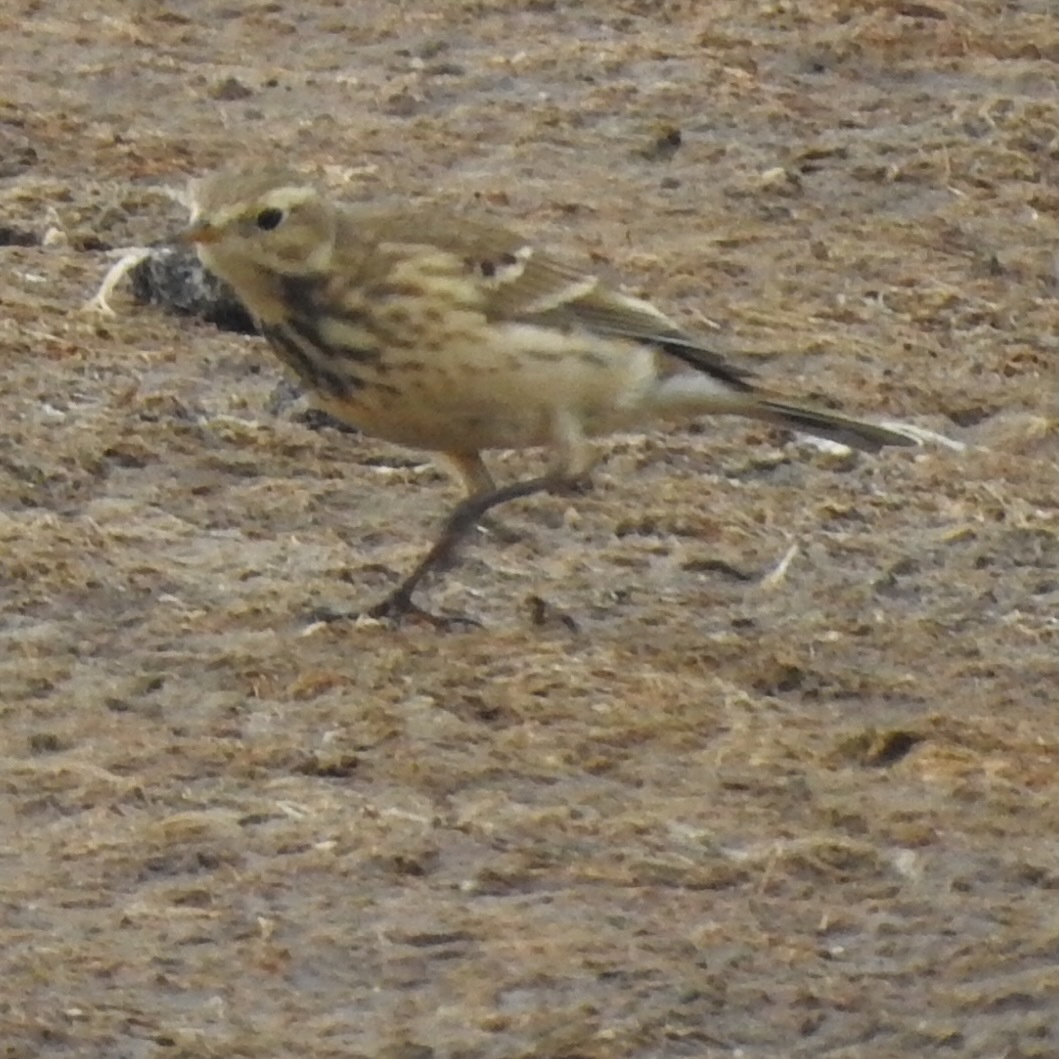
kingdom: Animalia
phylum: Chordata
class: Aves
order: Passeriformes
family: Motacillidae
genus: Anthus
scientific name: Anthus rubescens
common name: Buff-bellied pipit
